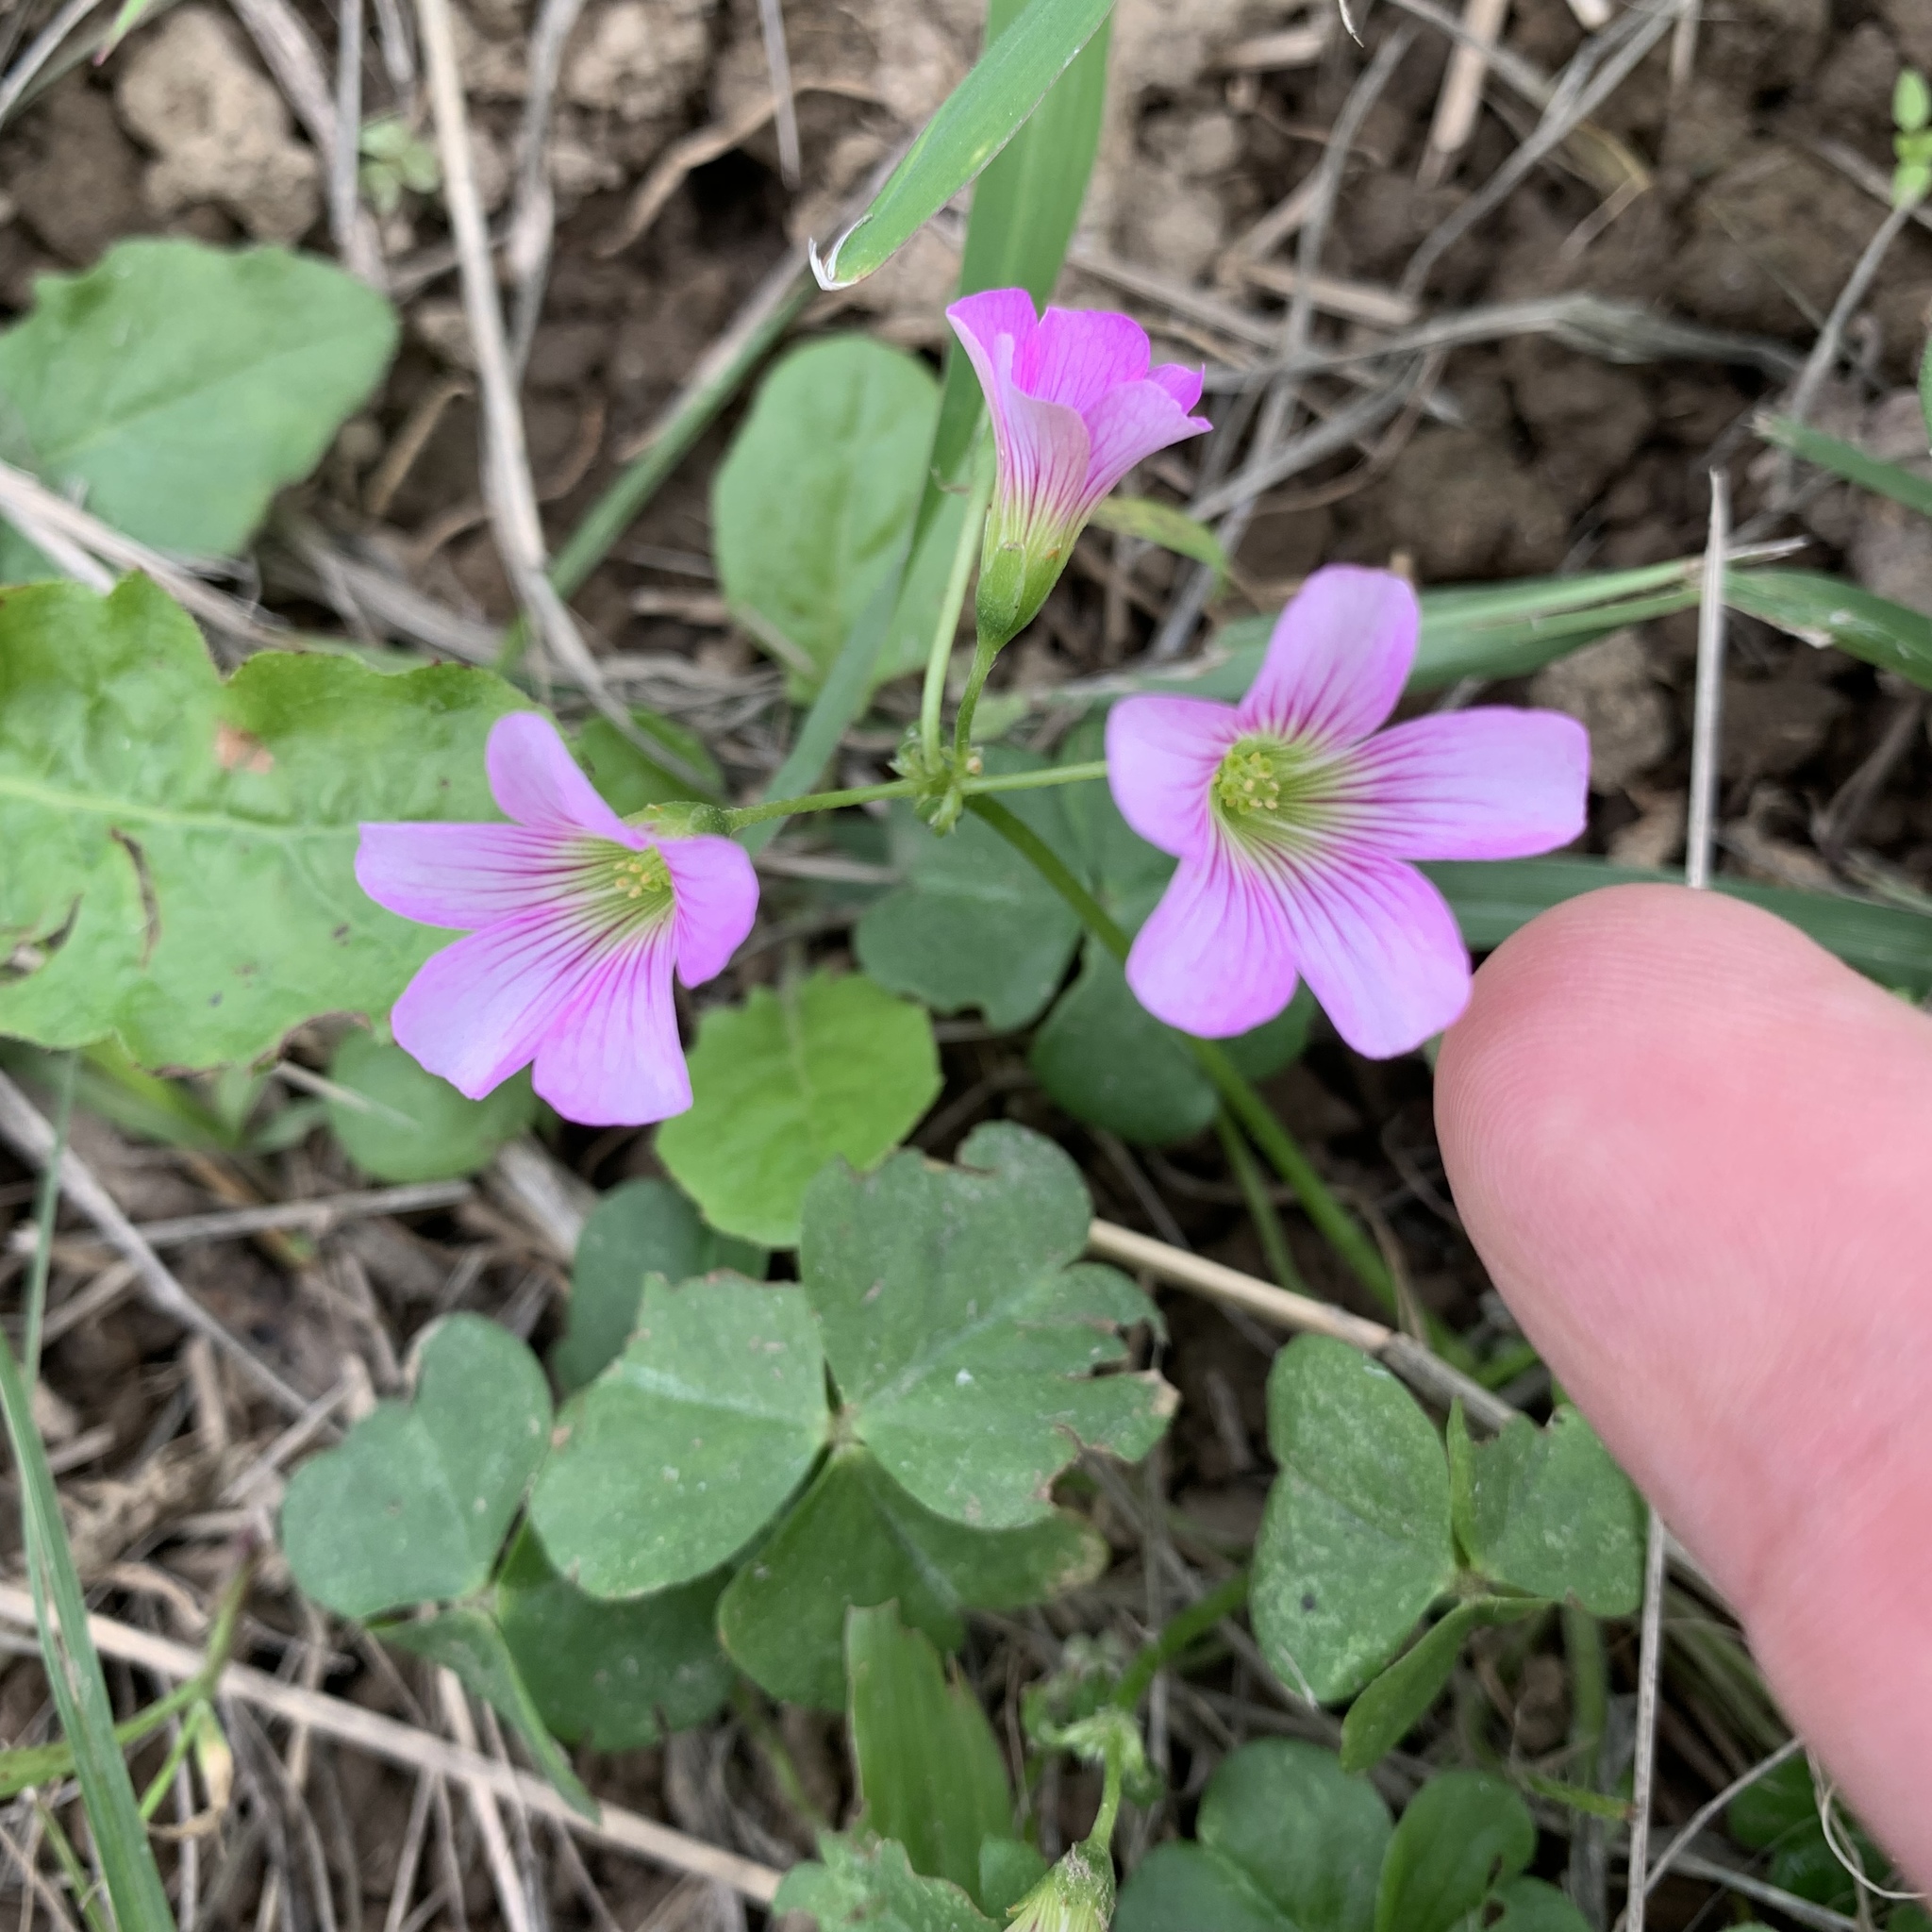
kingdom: Plantae
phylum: Tracheophyta
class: Magnoliopsida
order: Oxalidales
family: Oxalidaceae
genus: Oxalis
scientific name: Oxalis debilis
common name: Large-flowered pink-sorrel
